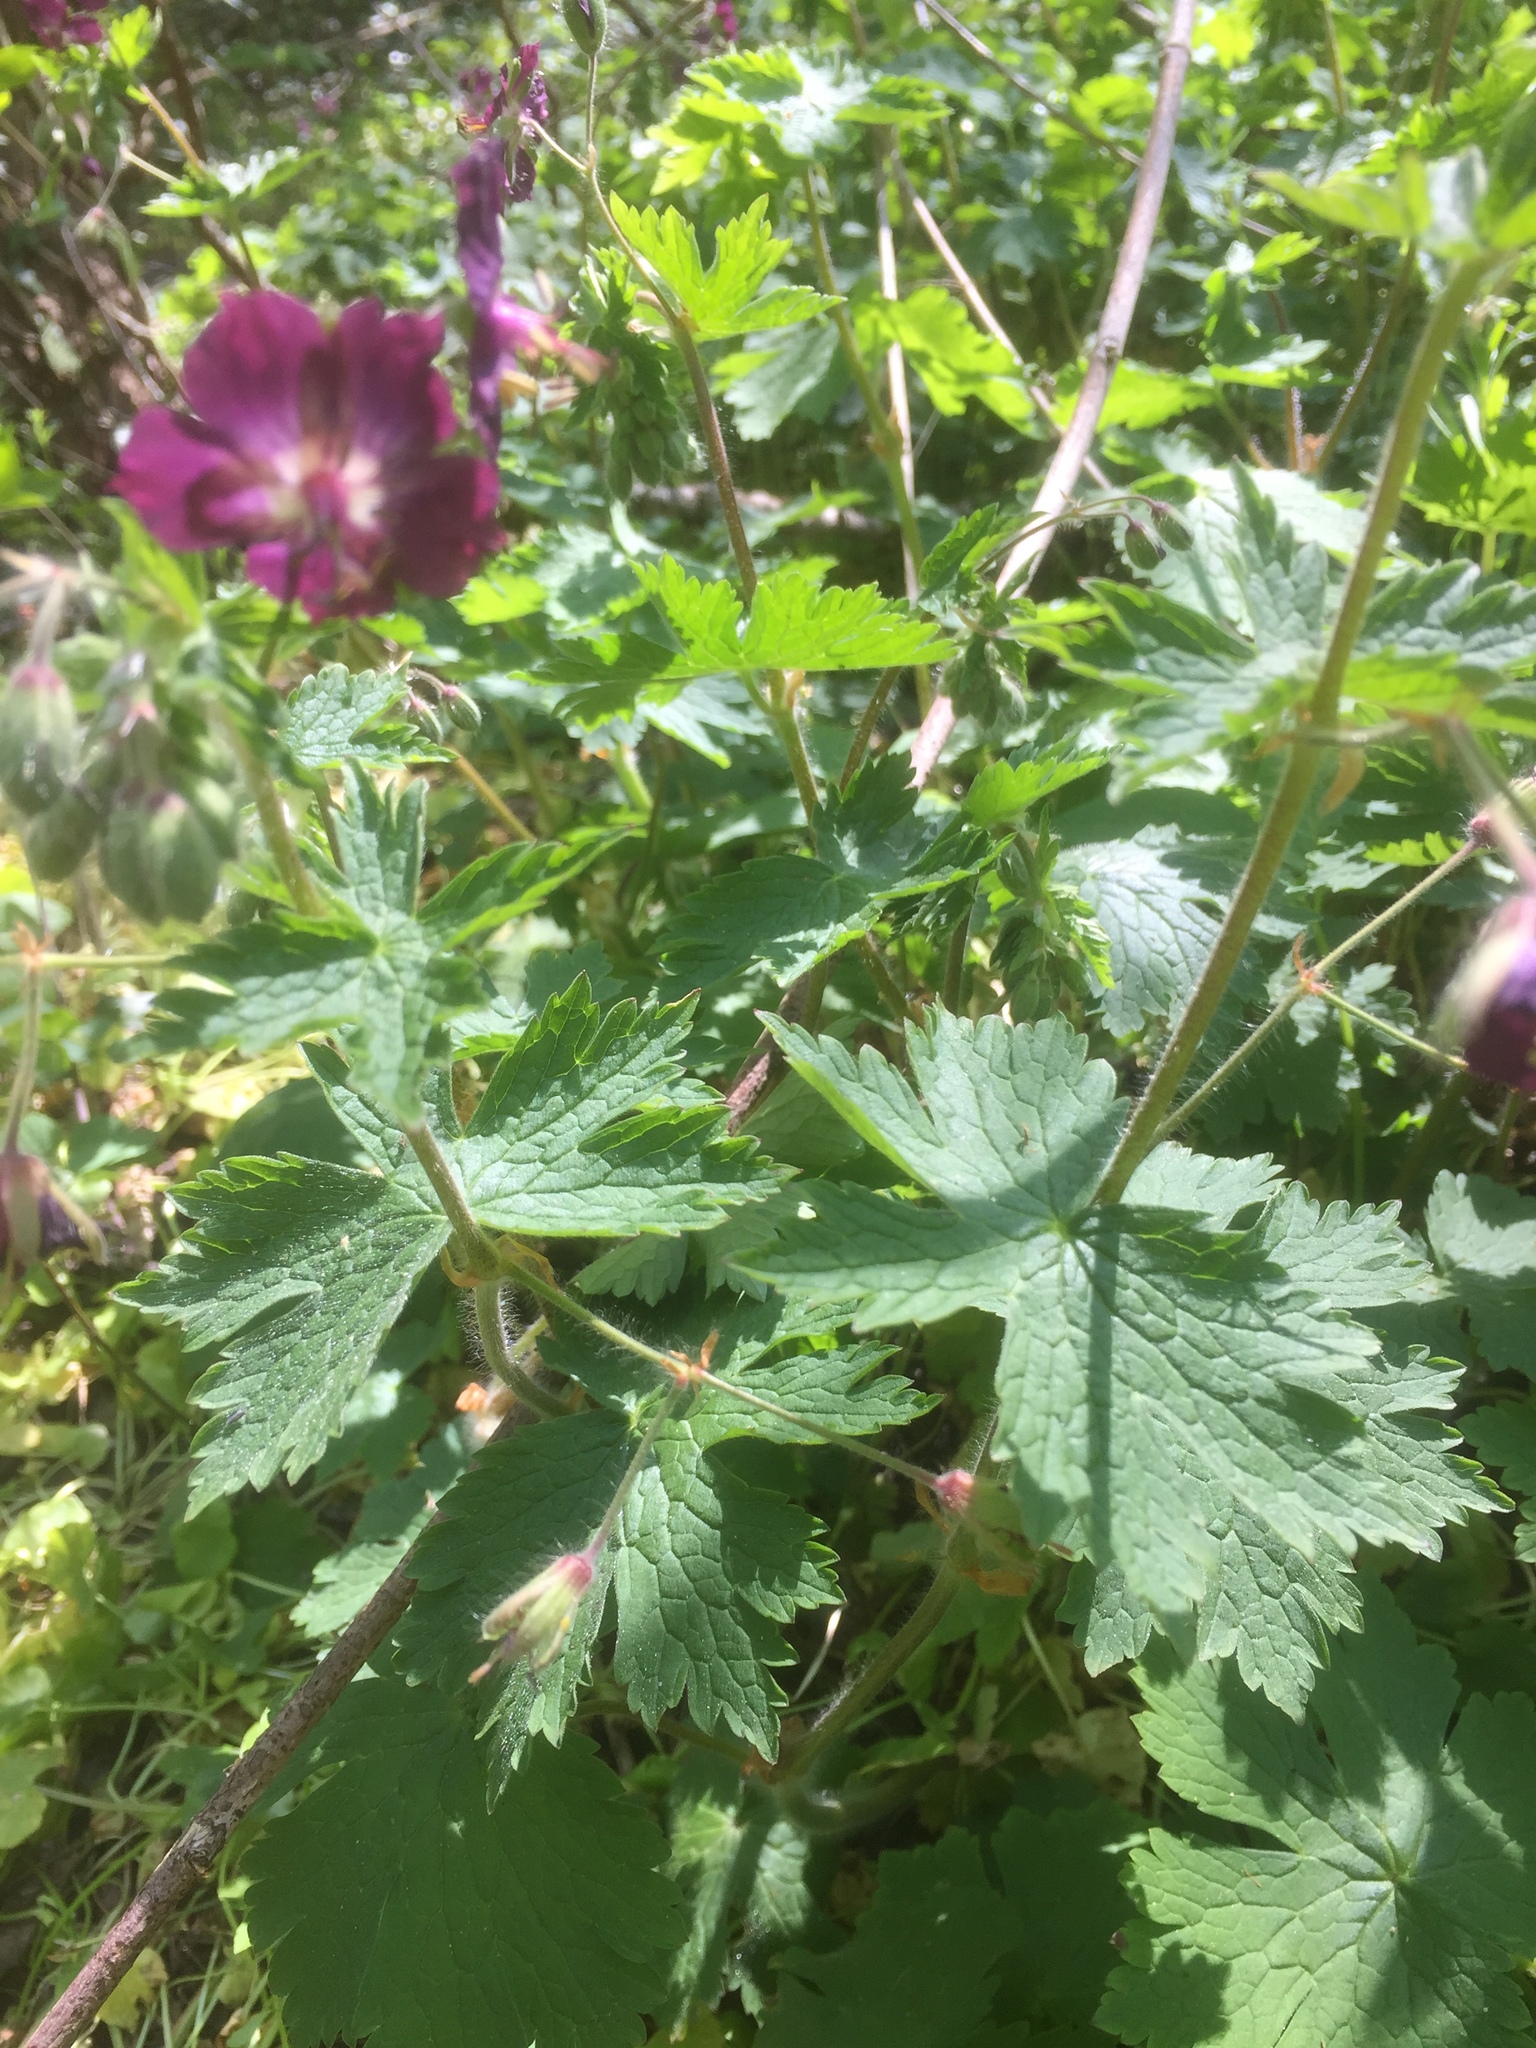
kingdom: Plantae
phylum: Tracheophyta
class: Magnoliopsida
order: Geraniales
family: Geraniaceae
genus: Geranium
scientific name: Geranium phaeum
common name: Dusky crane's-bill
